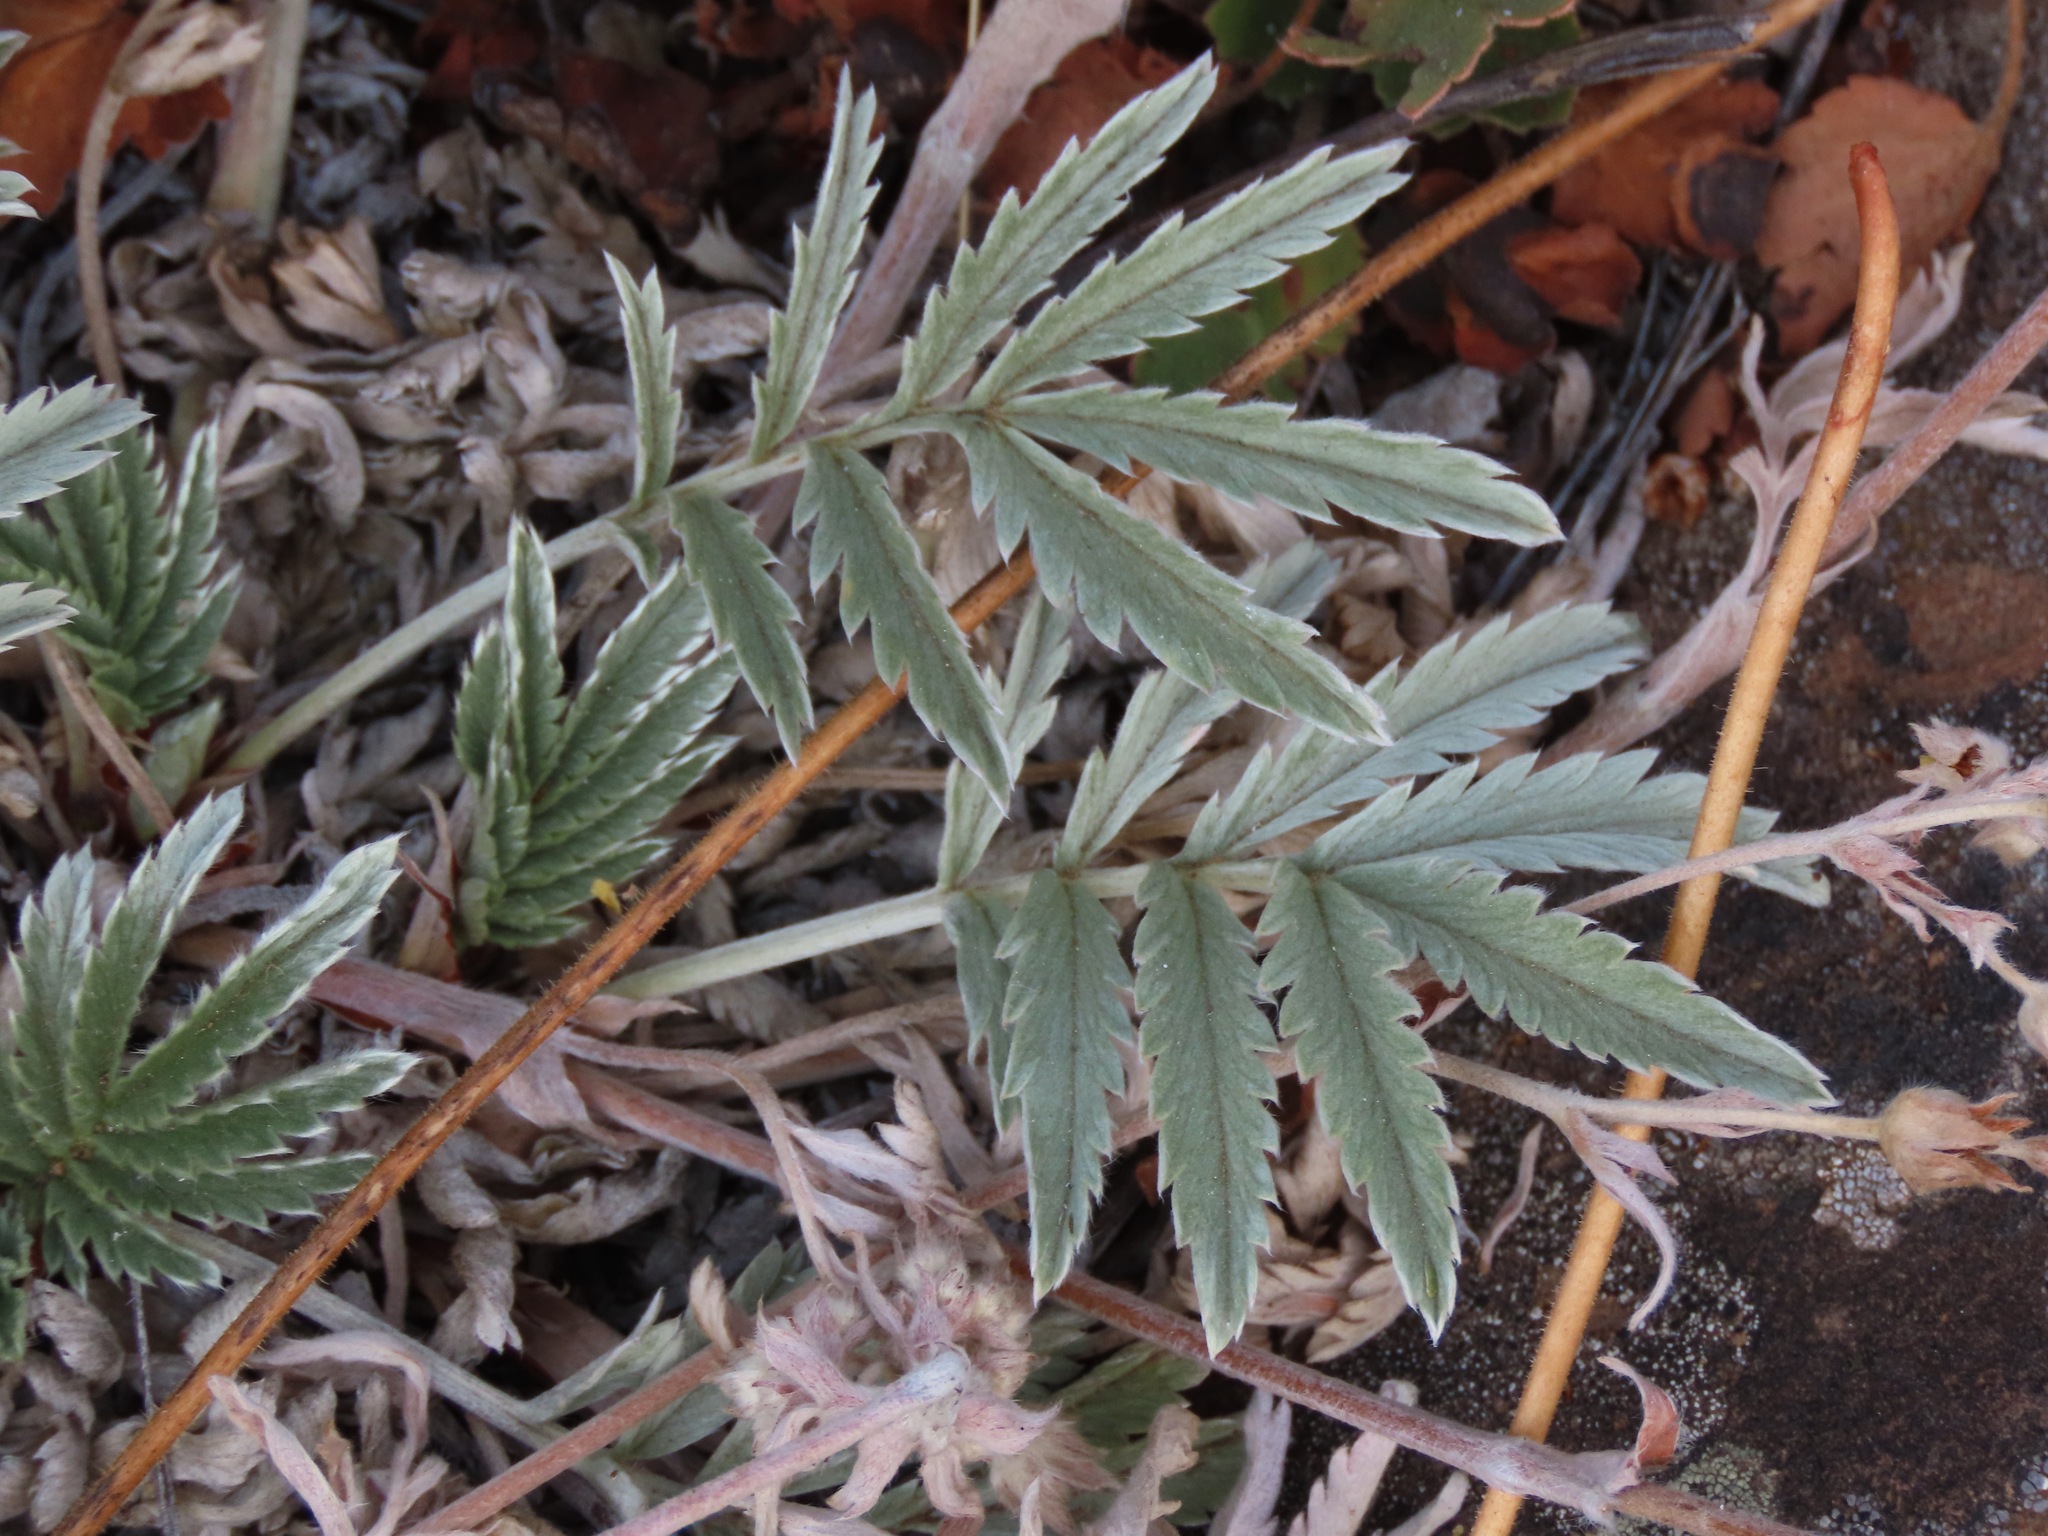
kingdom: Plantae
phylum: Tracheophyta
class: Magnoliopsida
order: Rosales
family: Rosaceae
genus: Argentina
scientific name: Argentina anserina
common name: Common silverweed
